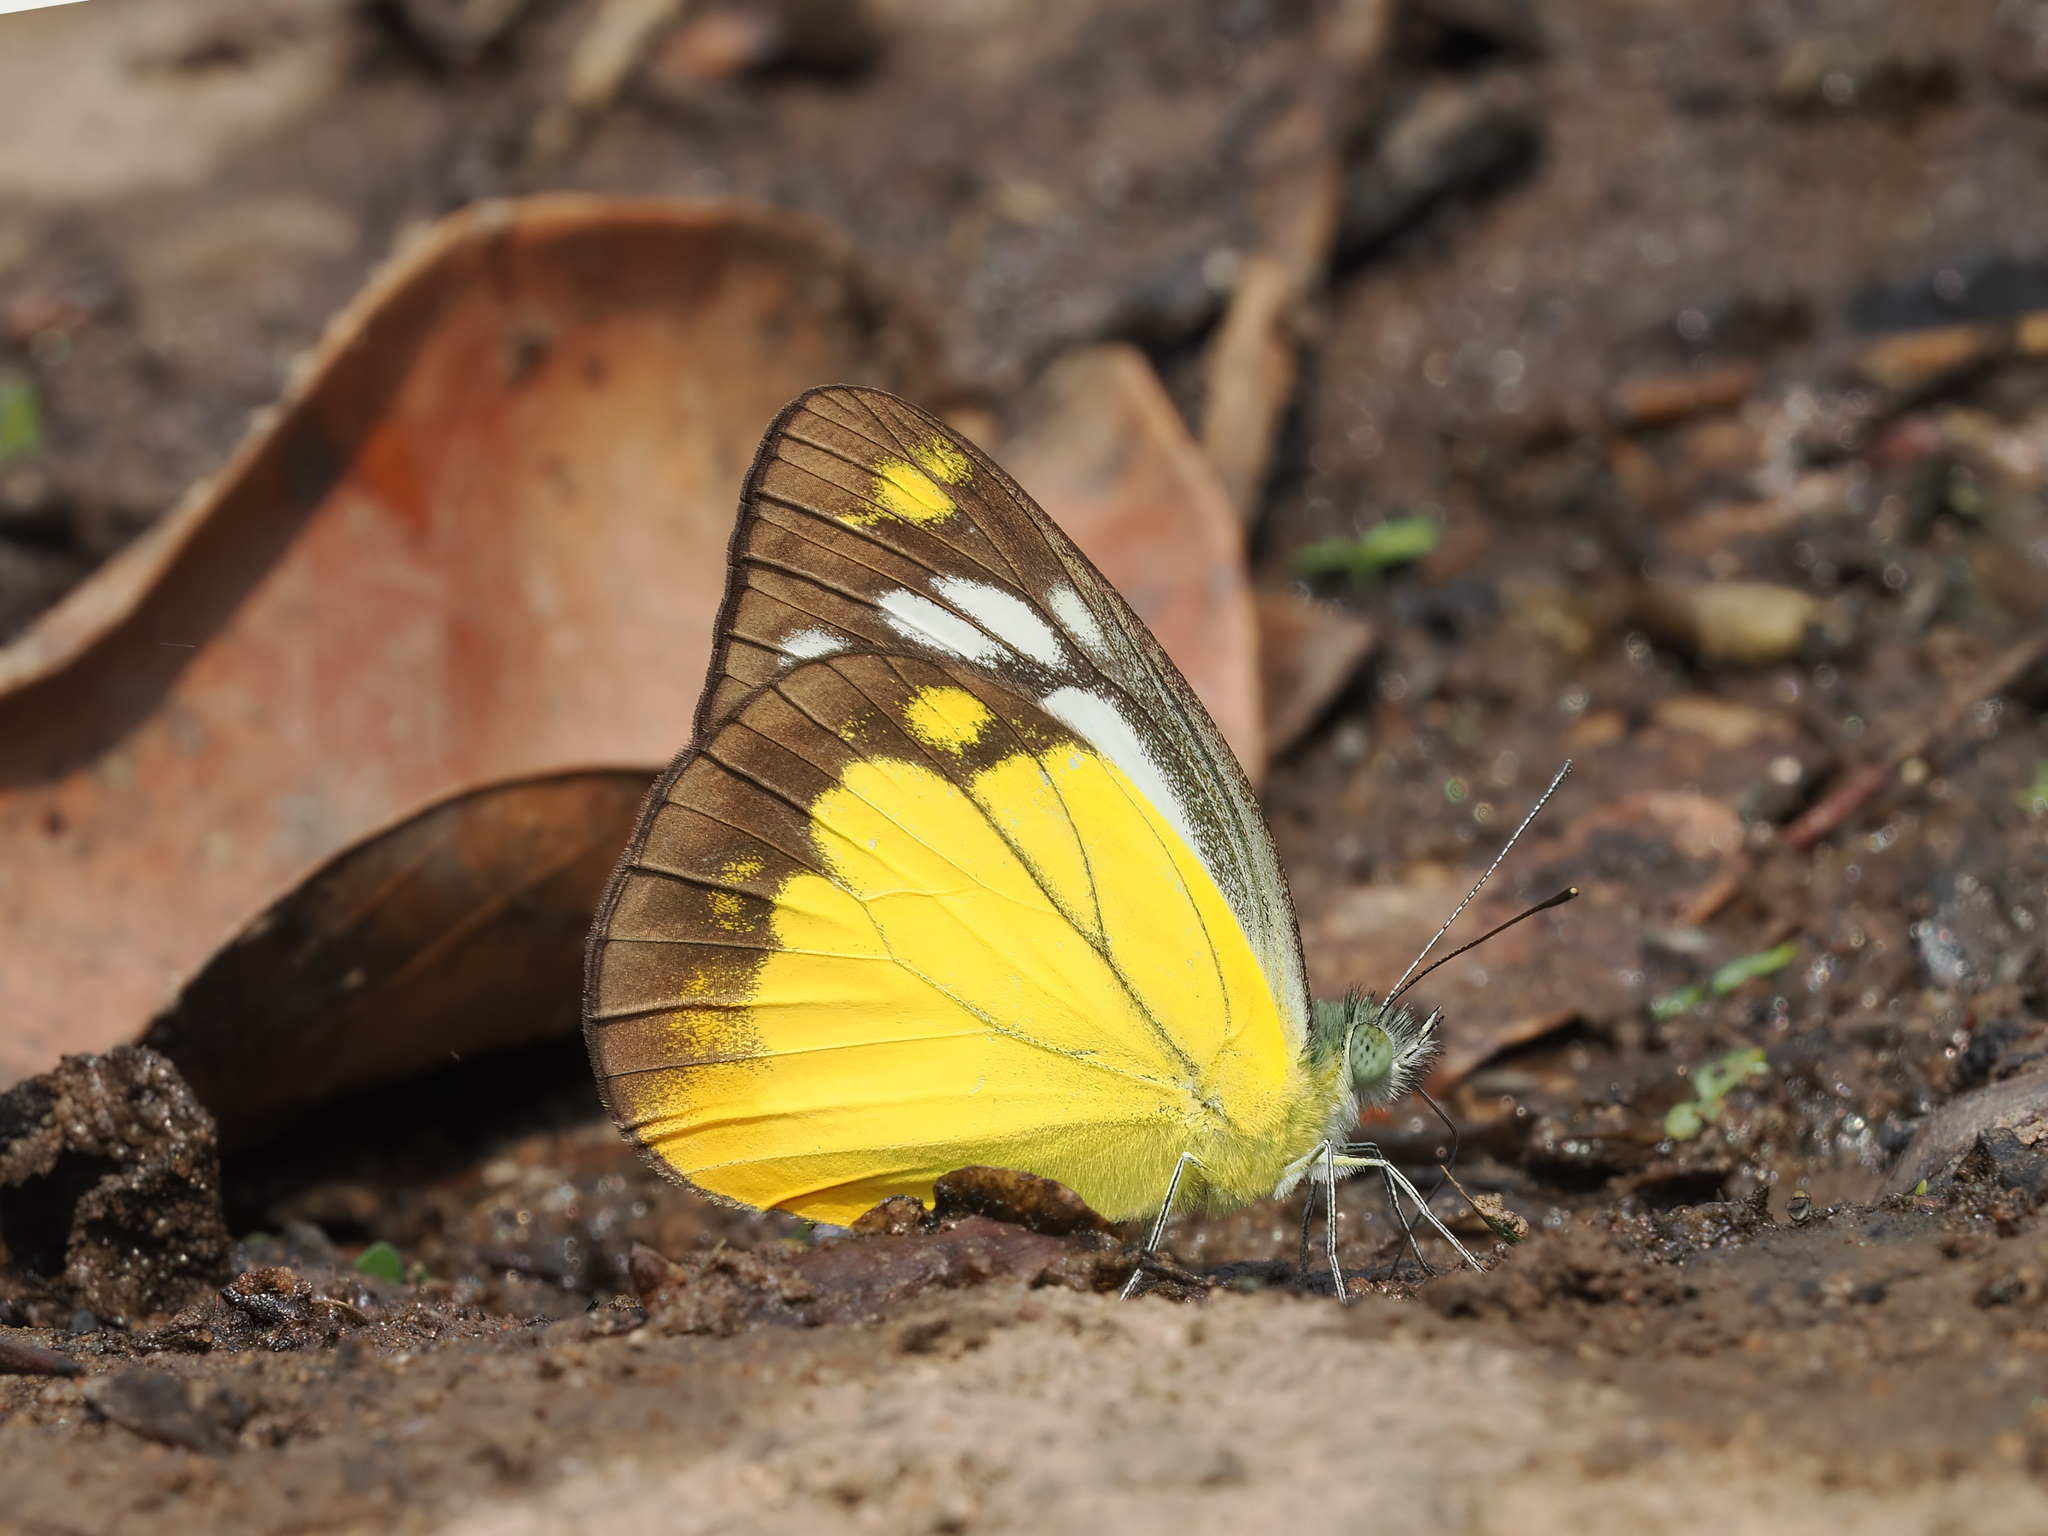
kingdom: Animalia
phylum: Arthropoda
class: Insecta
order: Lepidoptera
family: Pieridae
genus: Cepora
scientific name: Cepora iudith
